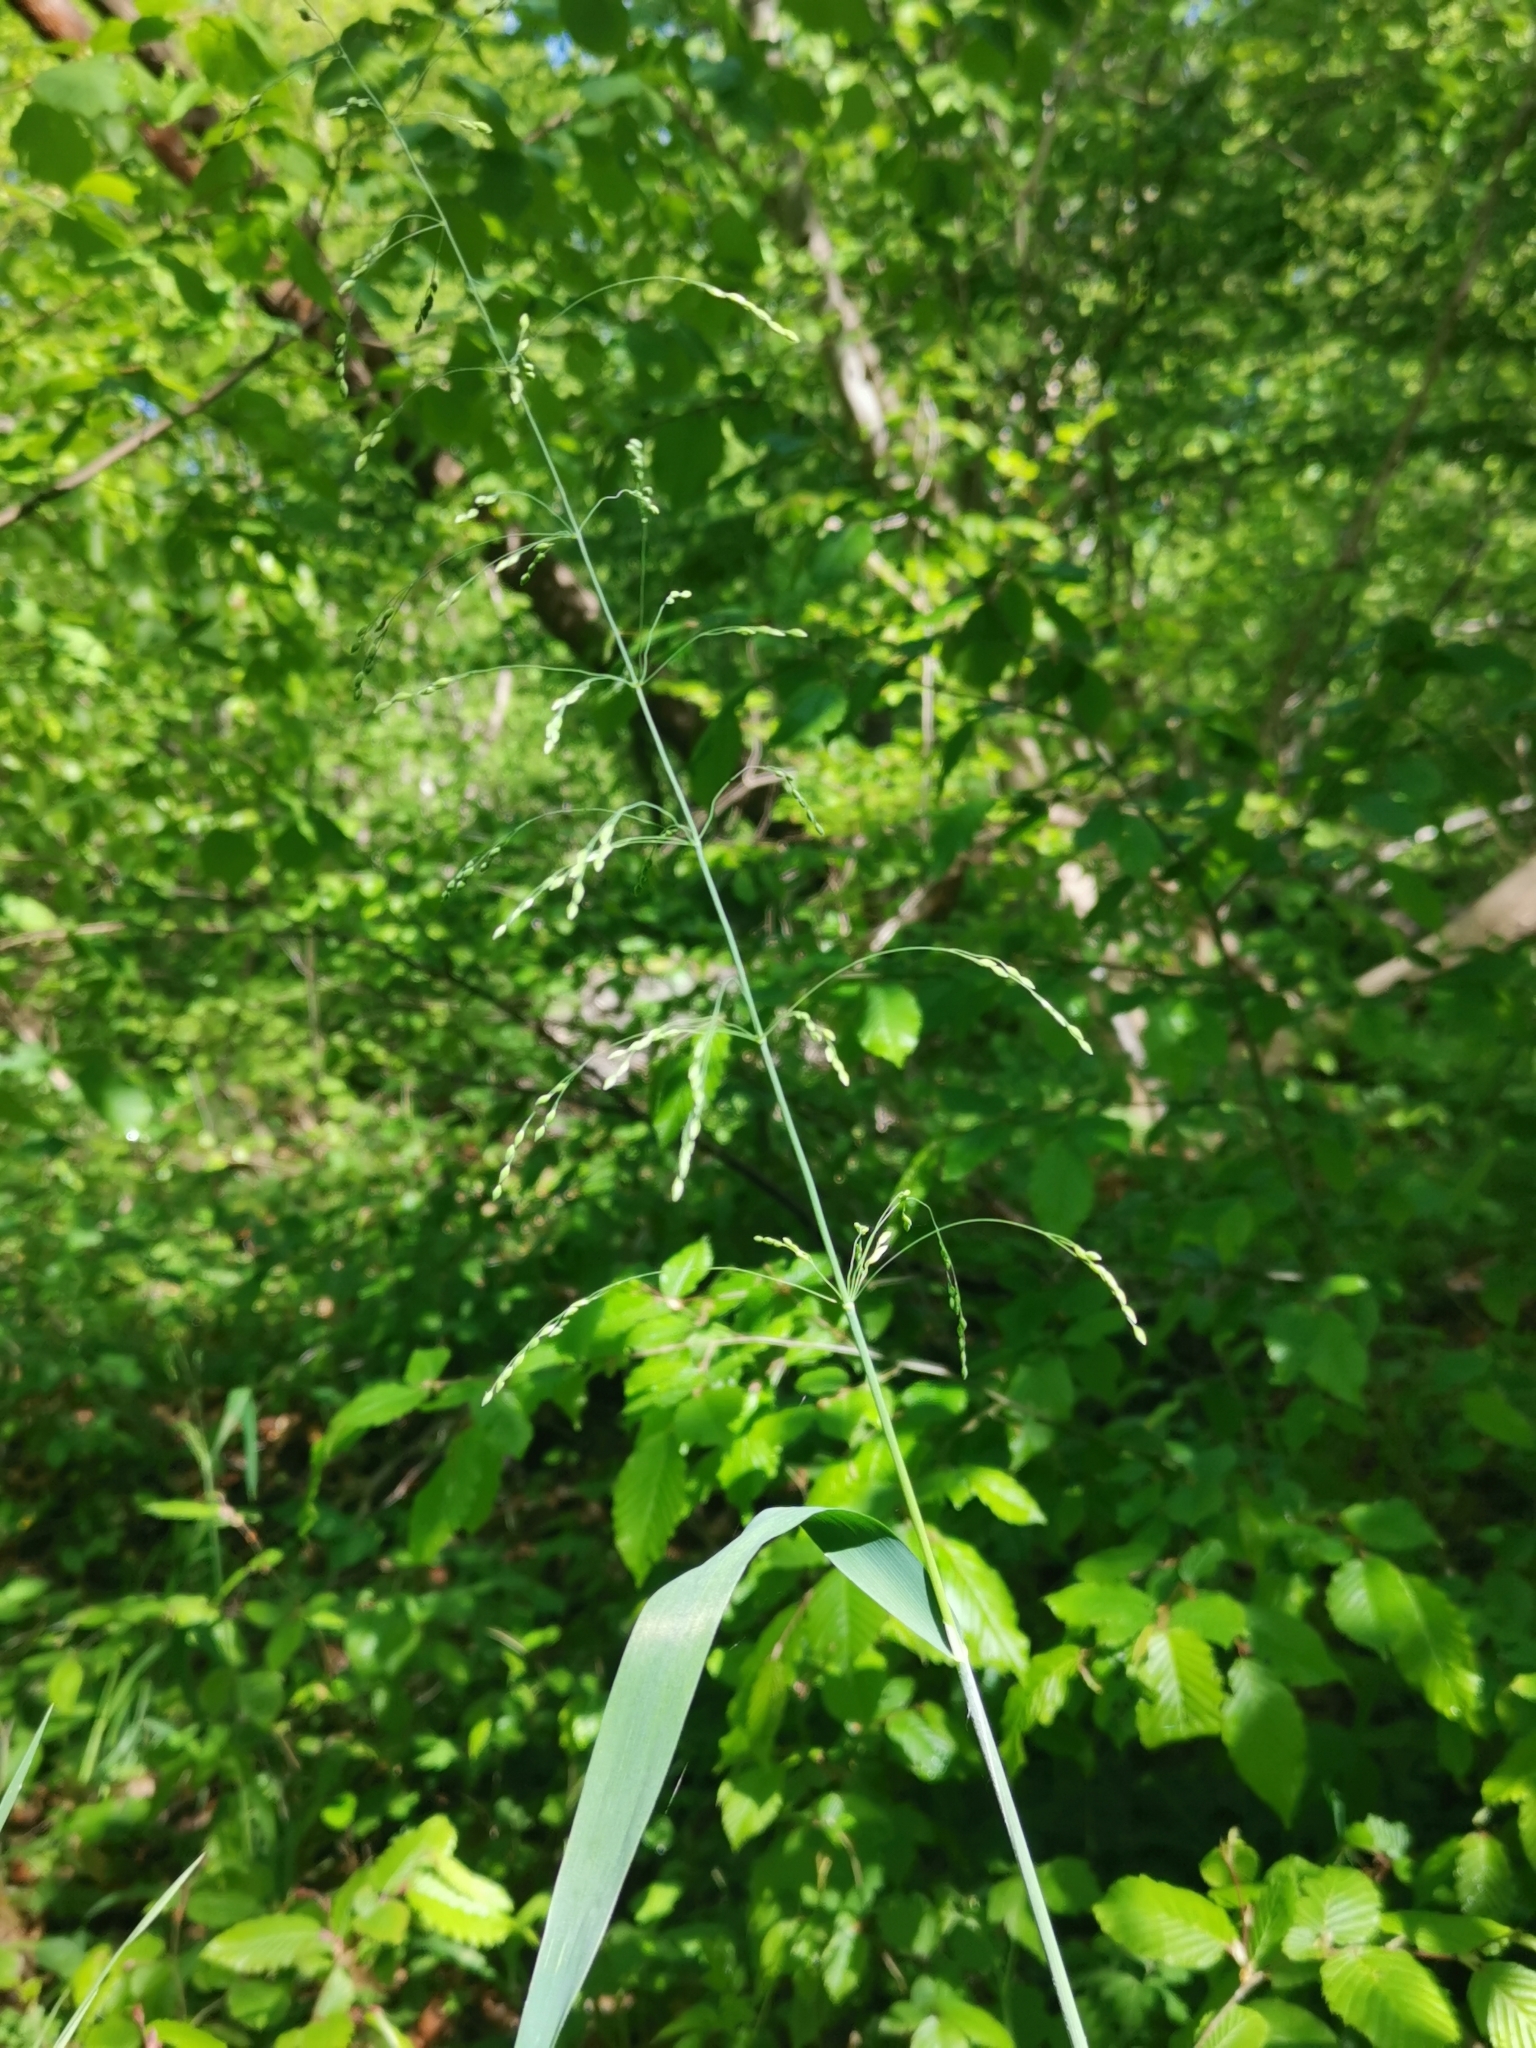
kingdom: Plantae
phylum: Tracheophyta
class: Liliopsida
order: Poales
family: Poaceae
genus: Milium
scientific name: Milium effusum
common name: Wood millet
